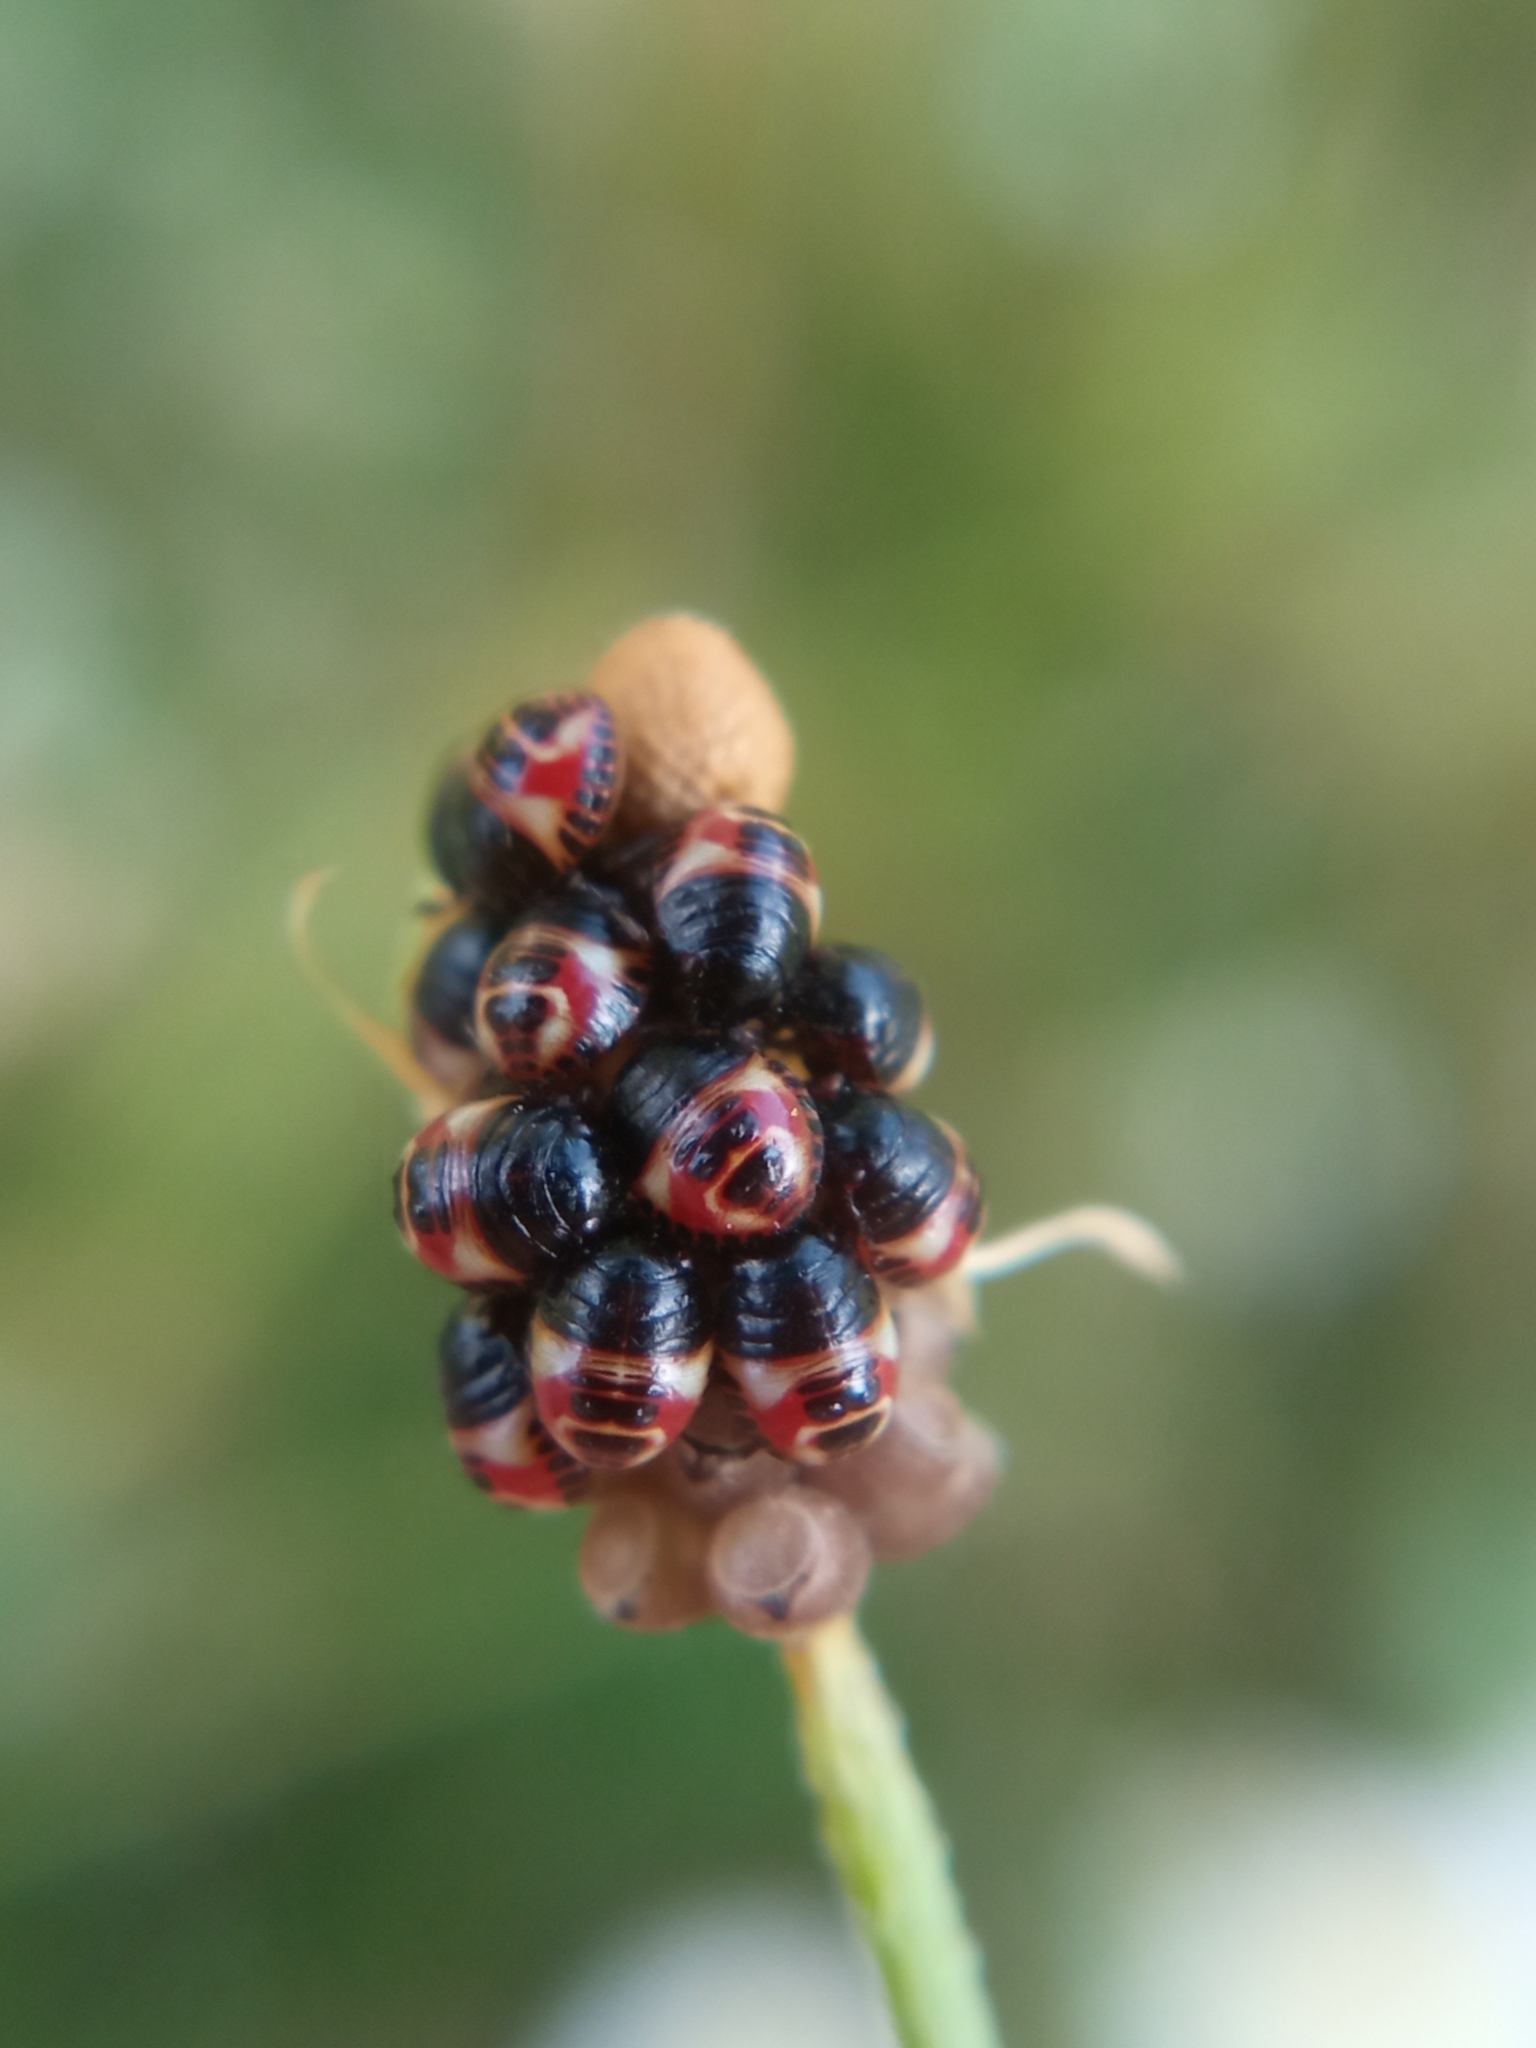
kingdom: Animalia
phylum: Arthropoda
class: Insecta
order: Hemiptera
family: Pentatomidae
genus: Carpocoris
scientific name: Carpocoris
